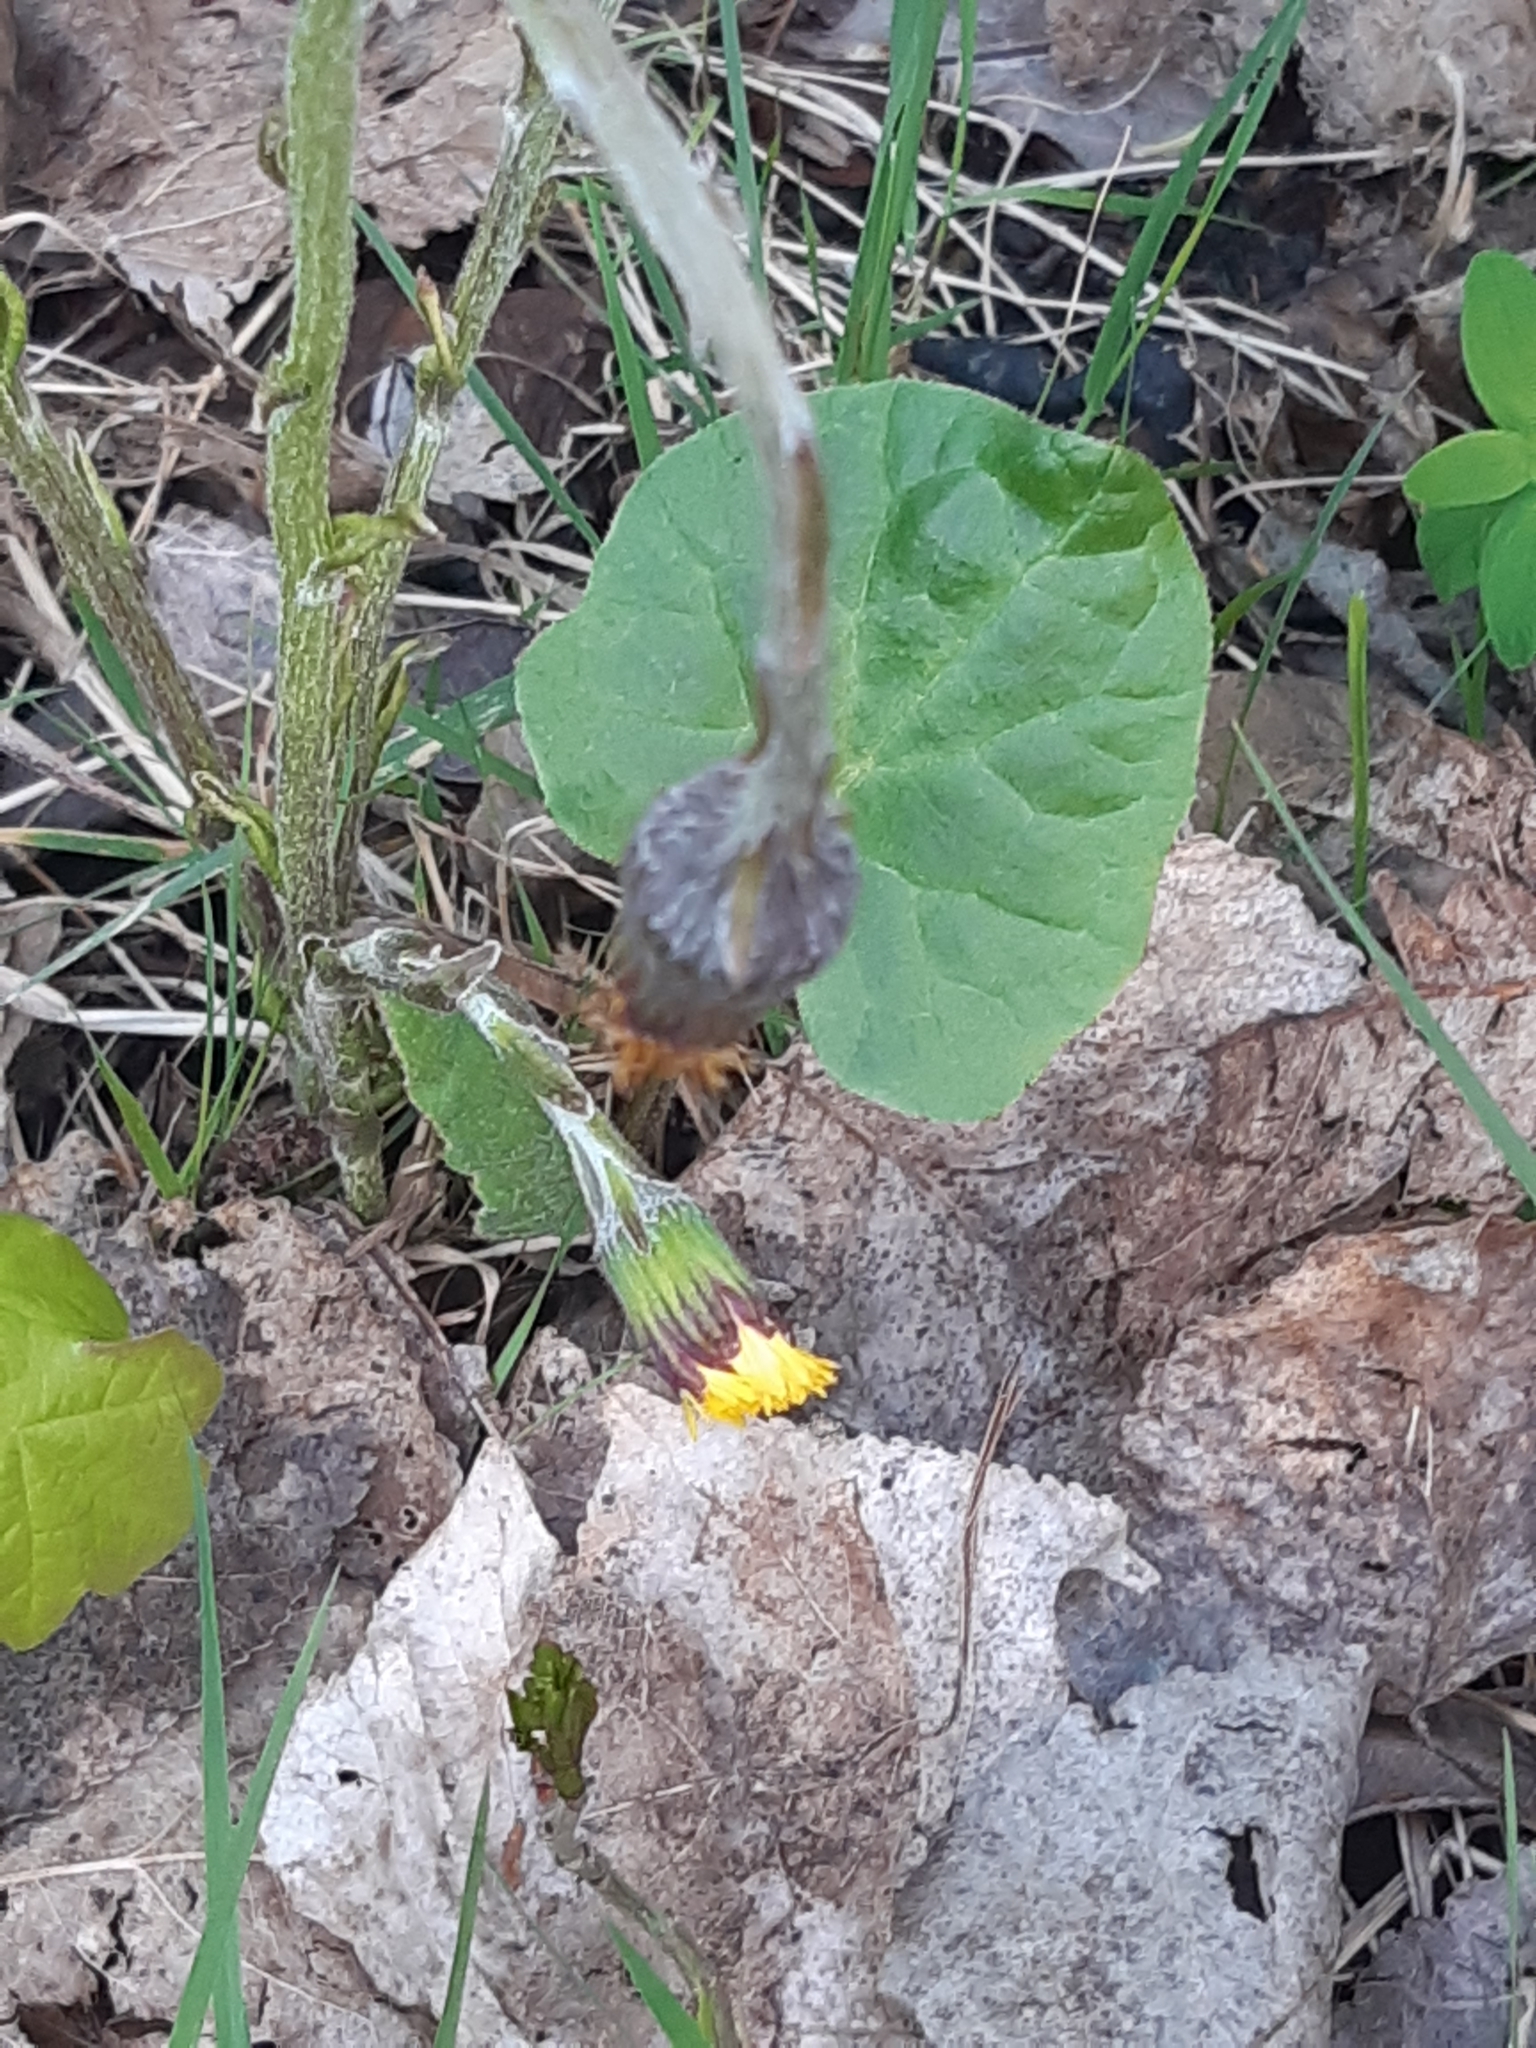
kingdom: Plantae
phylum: Tracheophyta
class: Magnoliopsida
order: Asterales
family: Asteraceae
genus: Tussilago
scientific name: Tussilago farfara
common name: Coltsfoot
